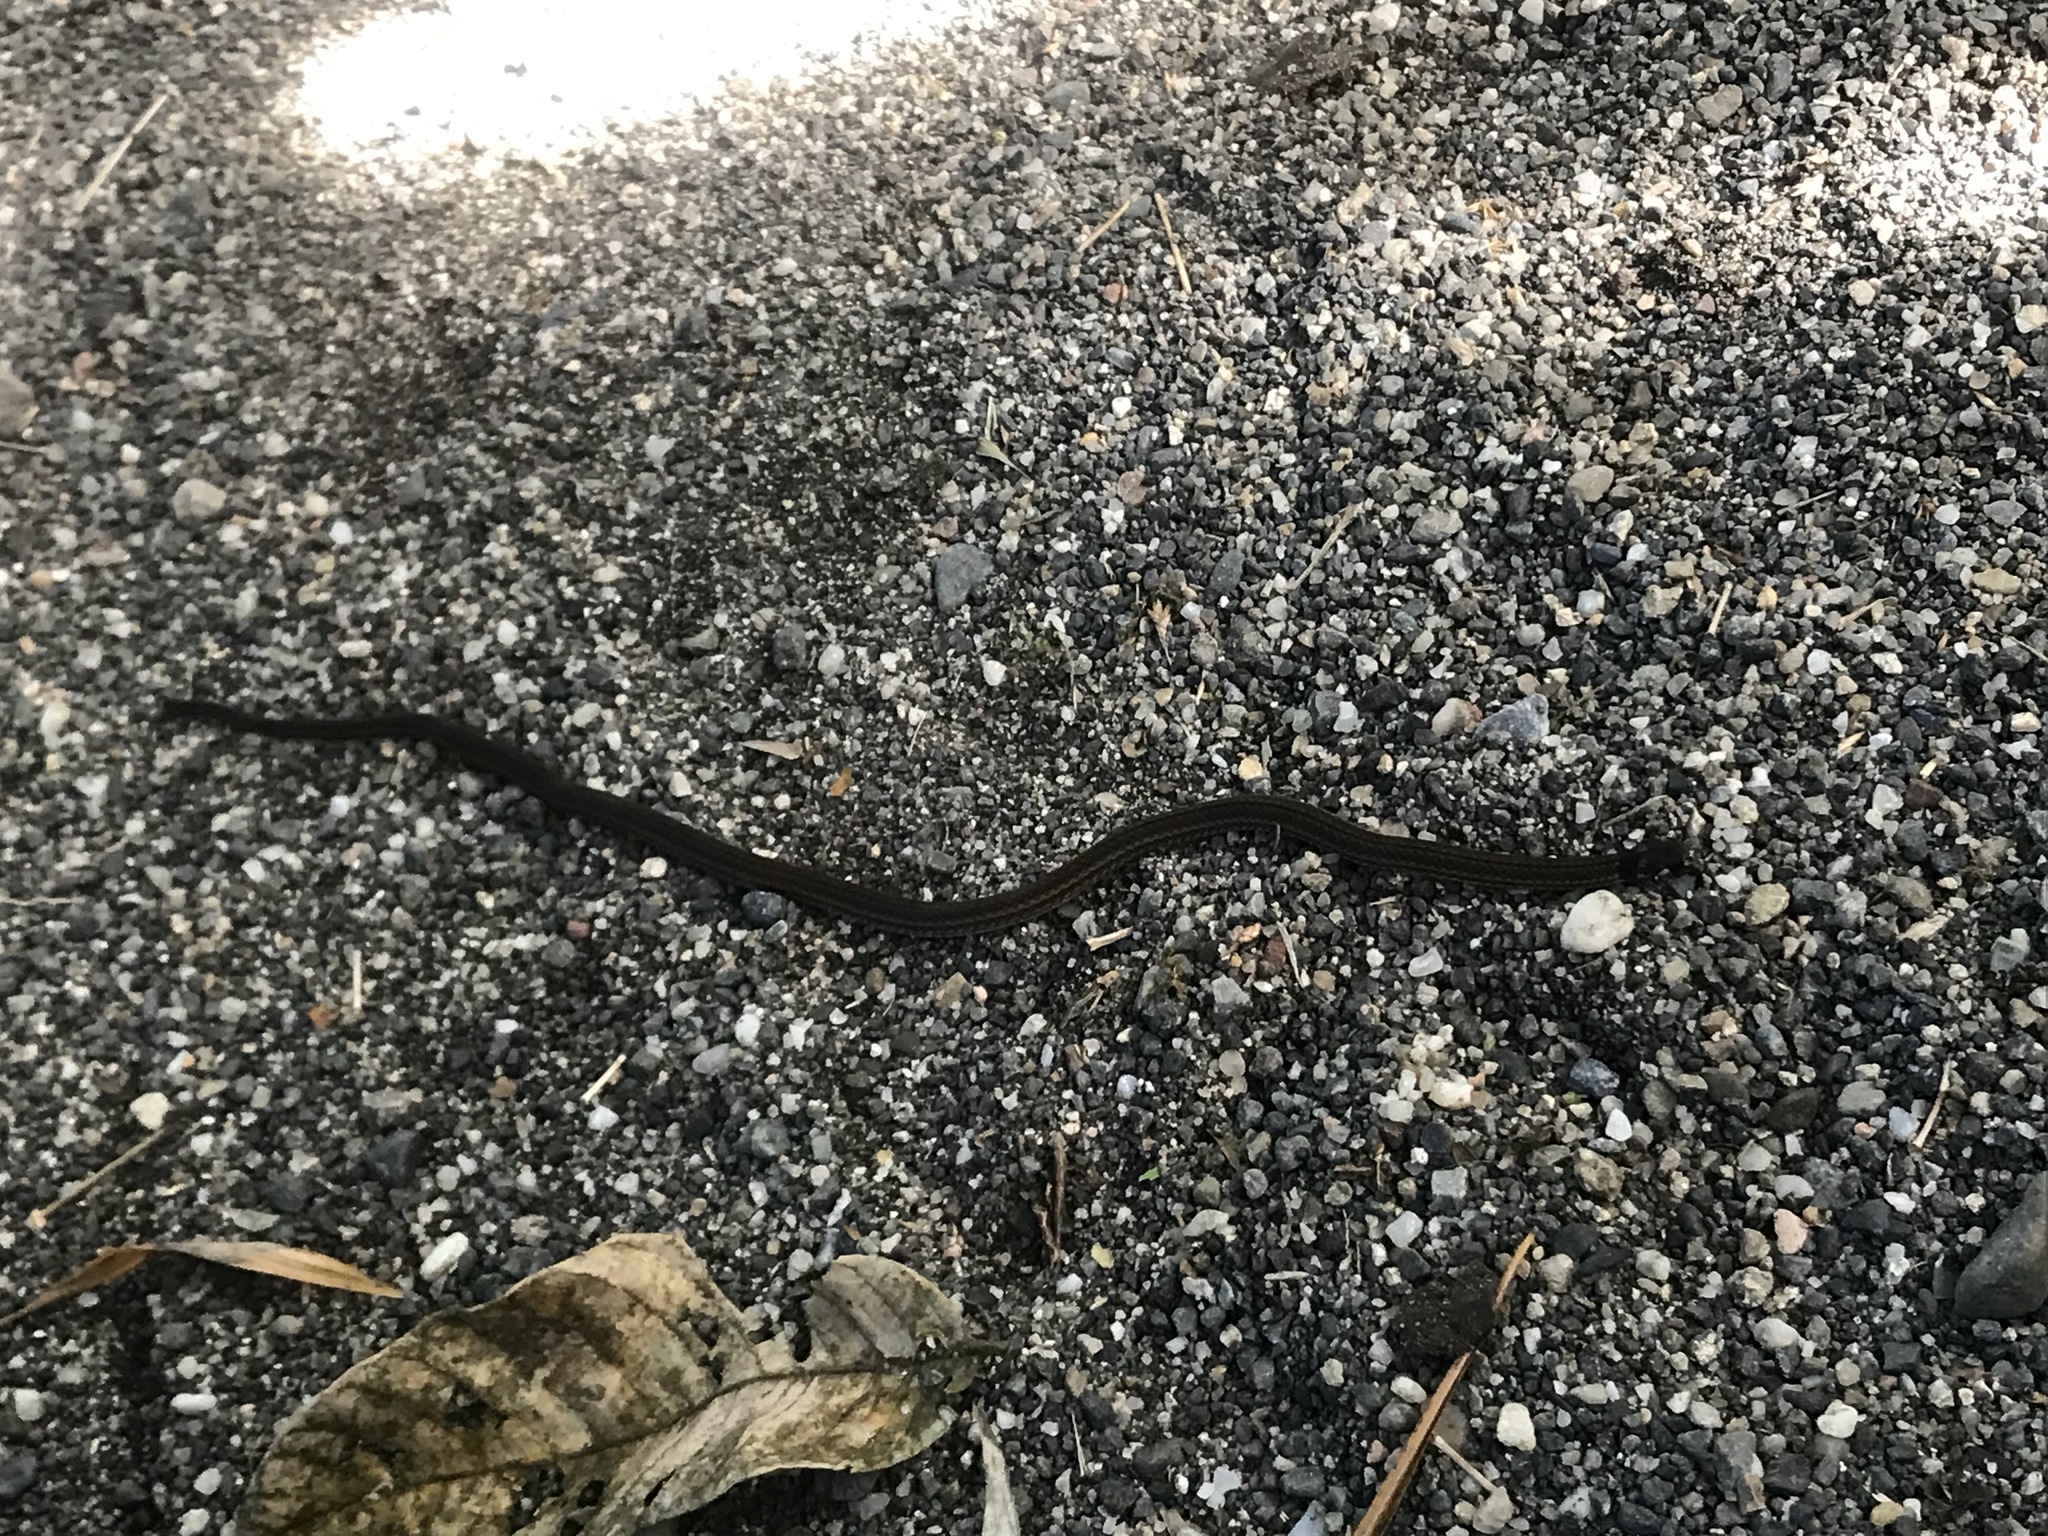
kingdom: Animalia
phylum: Chordata
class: Squamata
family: Colubridae
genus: Tantilla
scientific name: Tantilla melanocephala
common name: Black-headed snake
